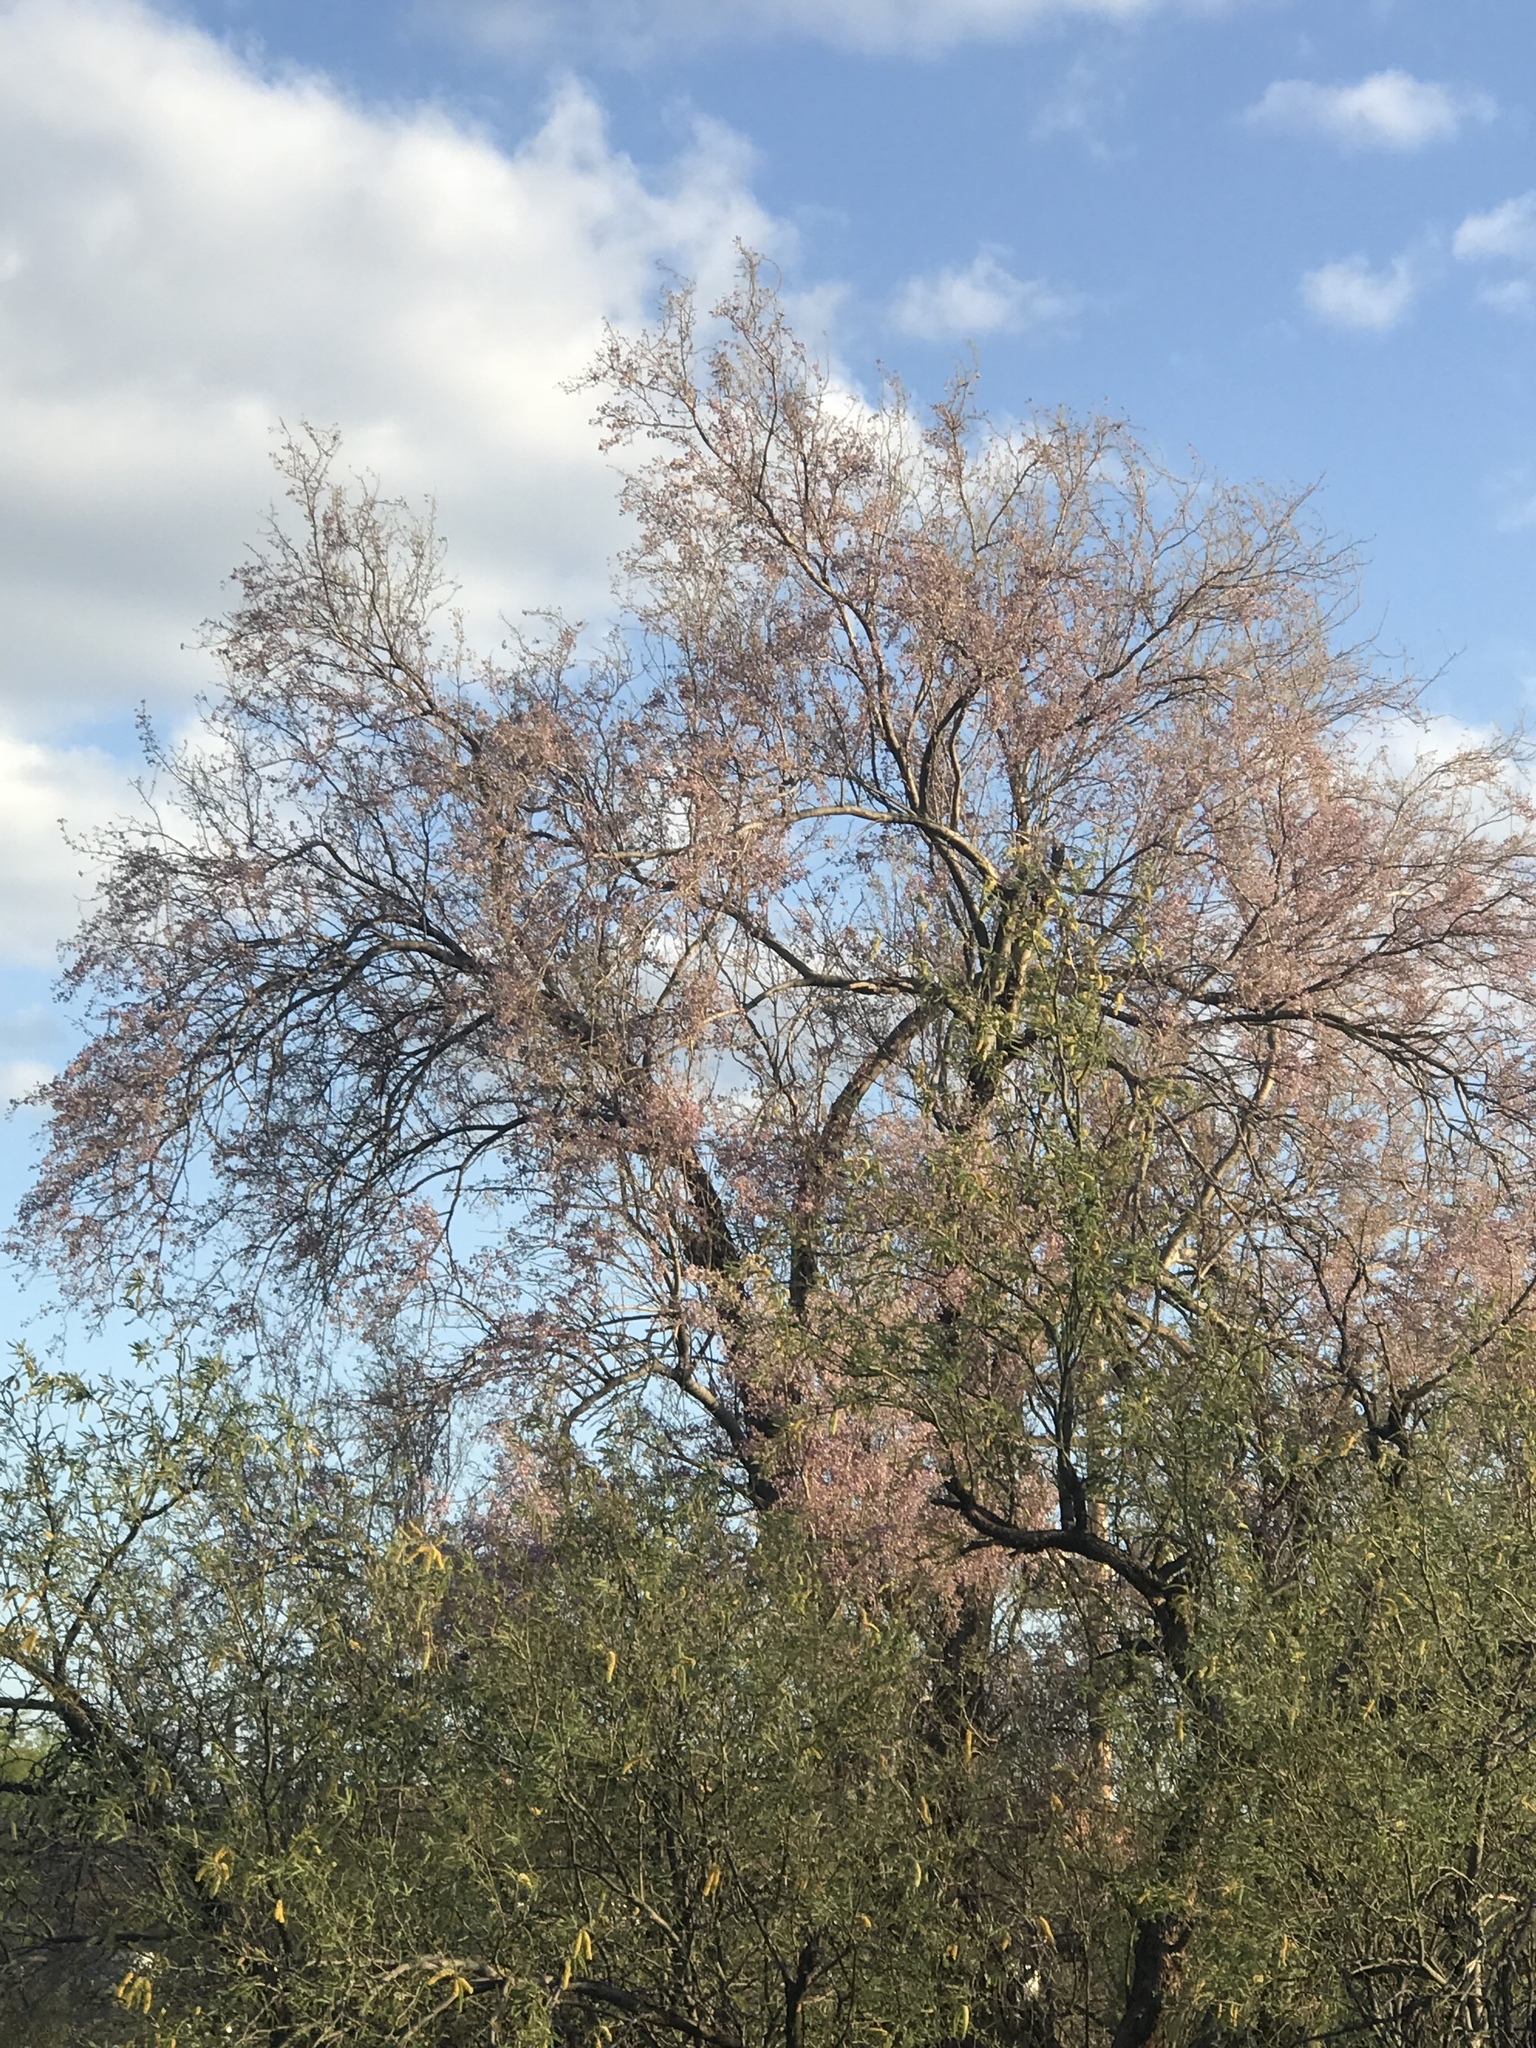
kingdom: Plantae
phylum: Tracheophyta
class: Magnoliopsida
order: Fabales
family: Fabaceae
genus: Olneya
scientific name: Olneya tesota
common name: Desert ironwood
